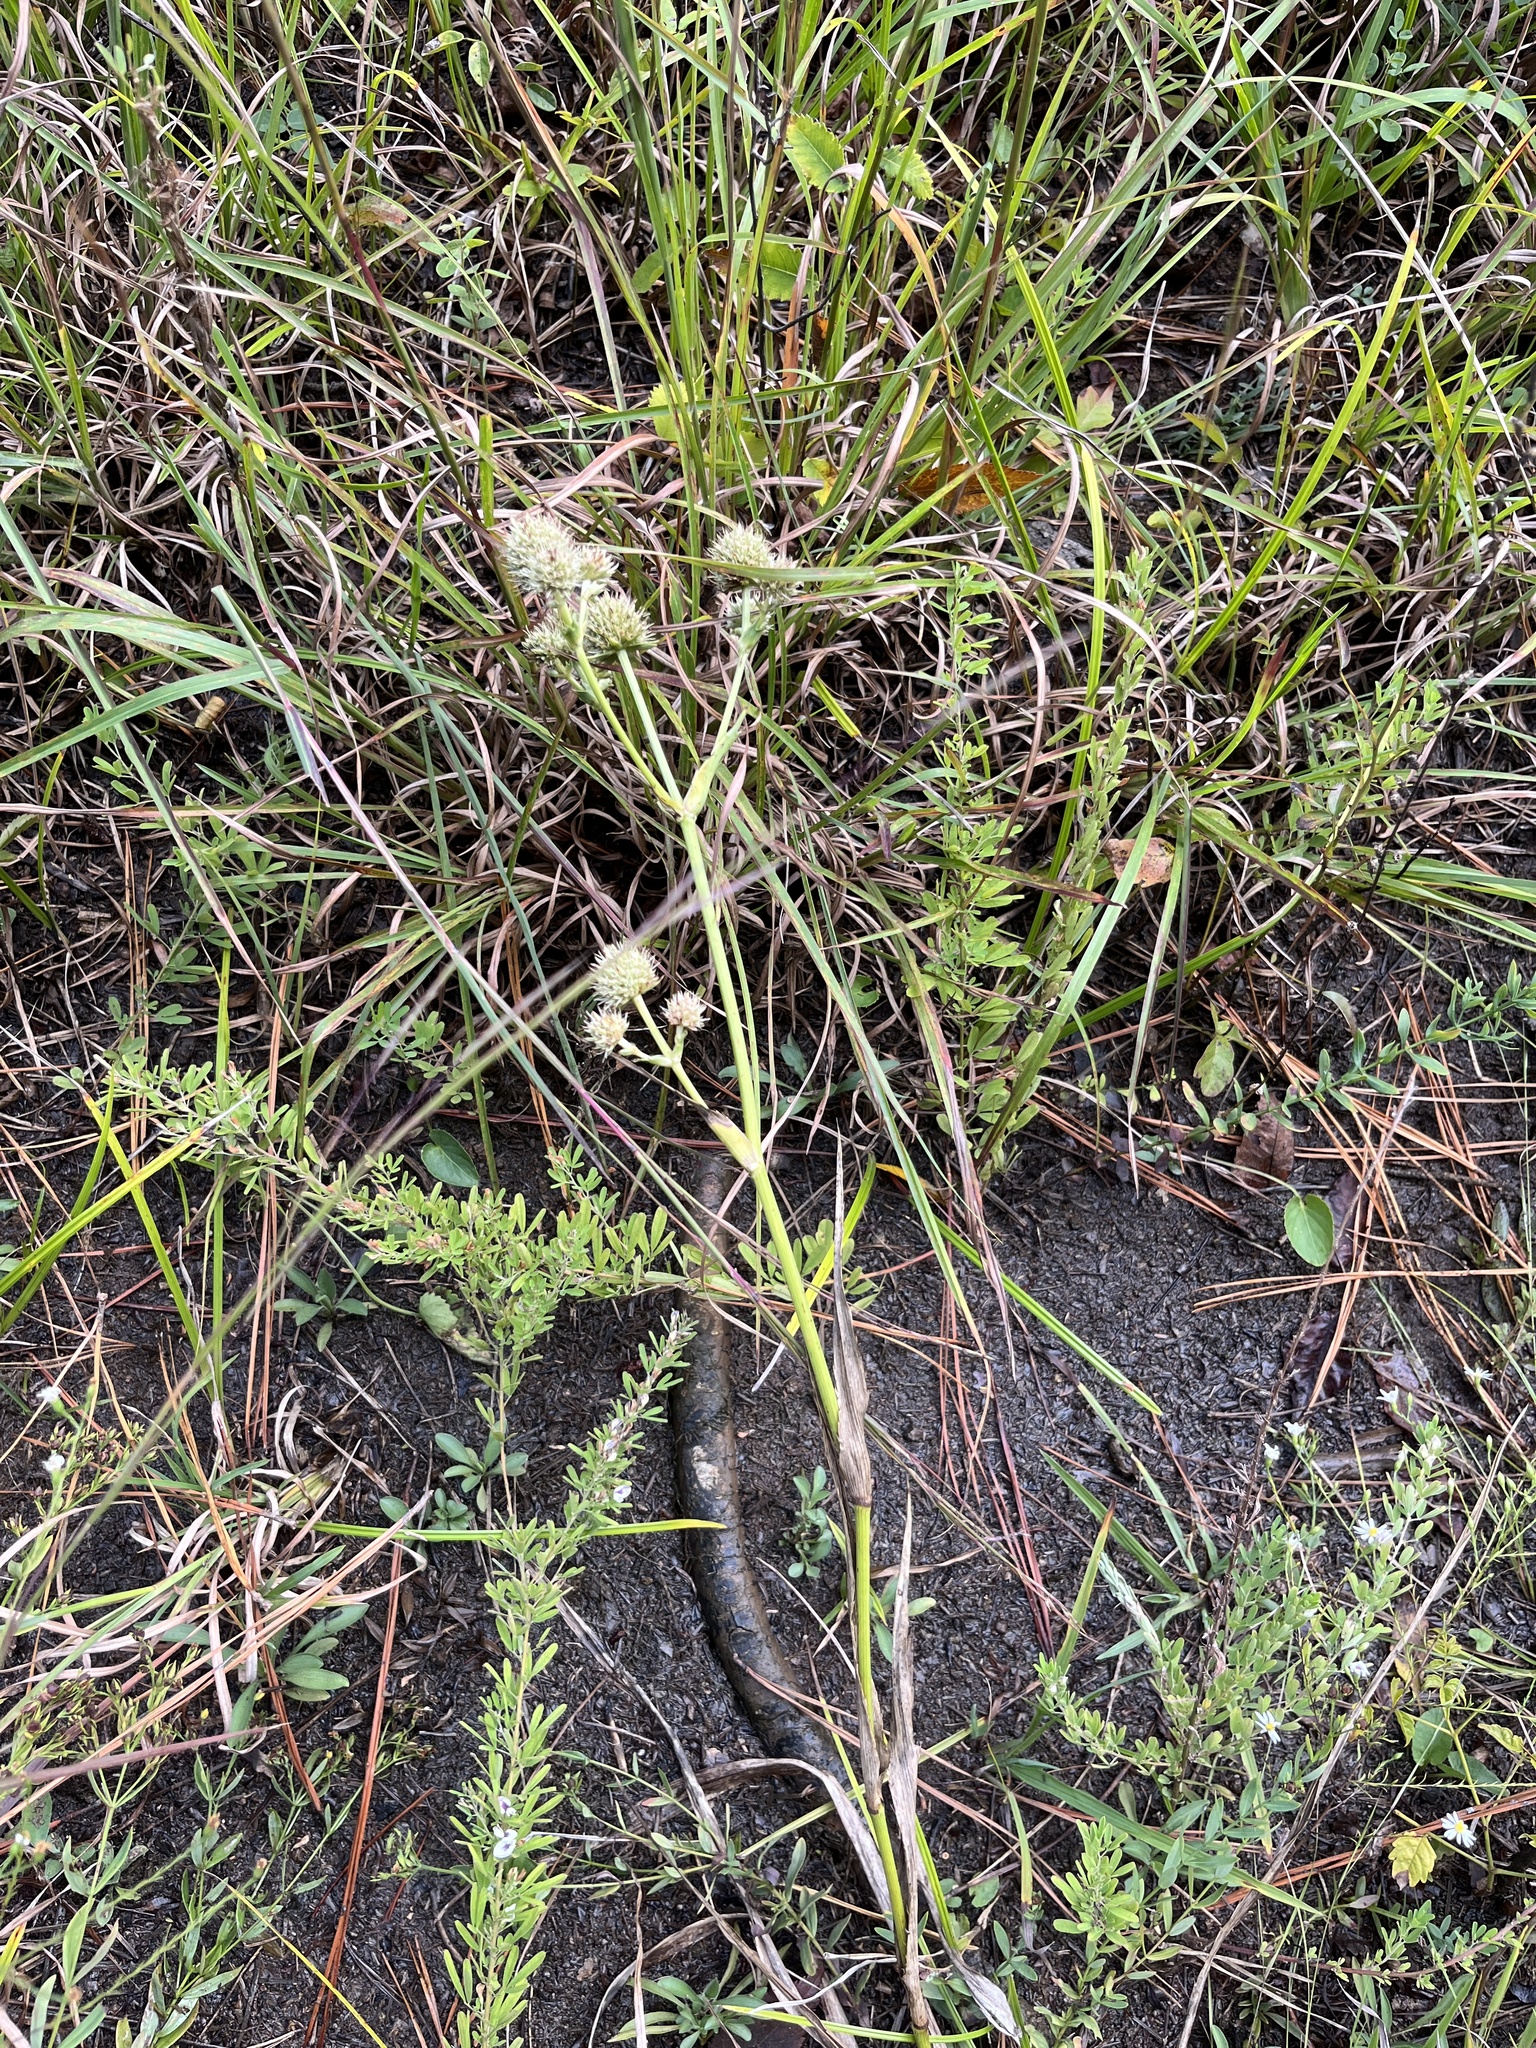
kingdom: Plantae
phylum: Tracheophyta
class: Magnoliopsida
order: Apiales
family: Apiaceae
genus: Eryngium
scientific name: Eryngium yuccifolium
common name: Button eryngo
